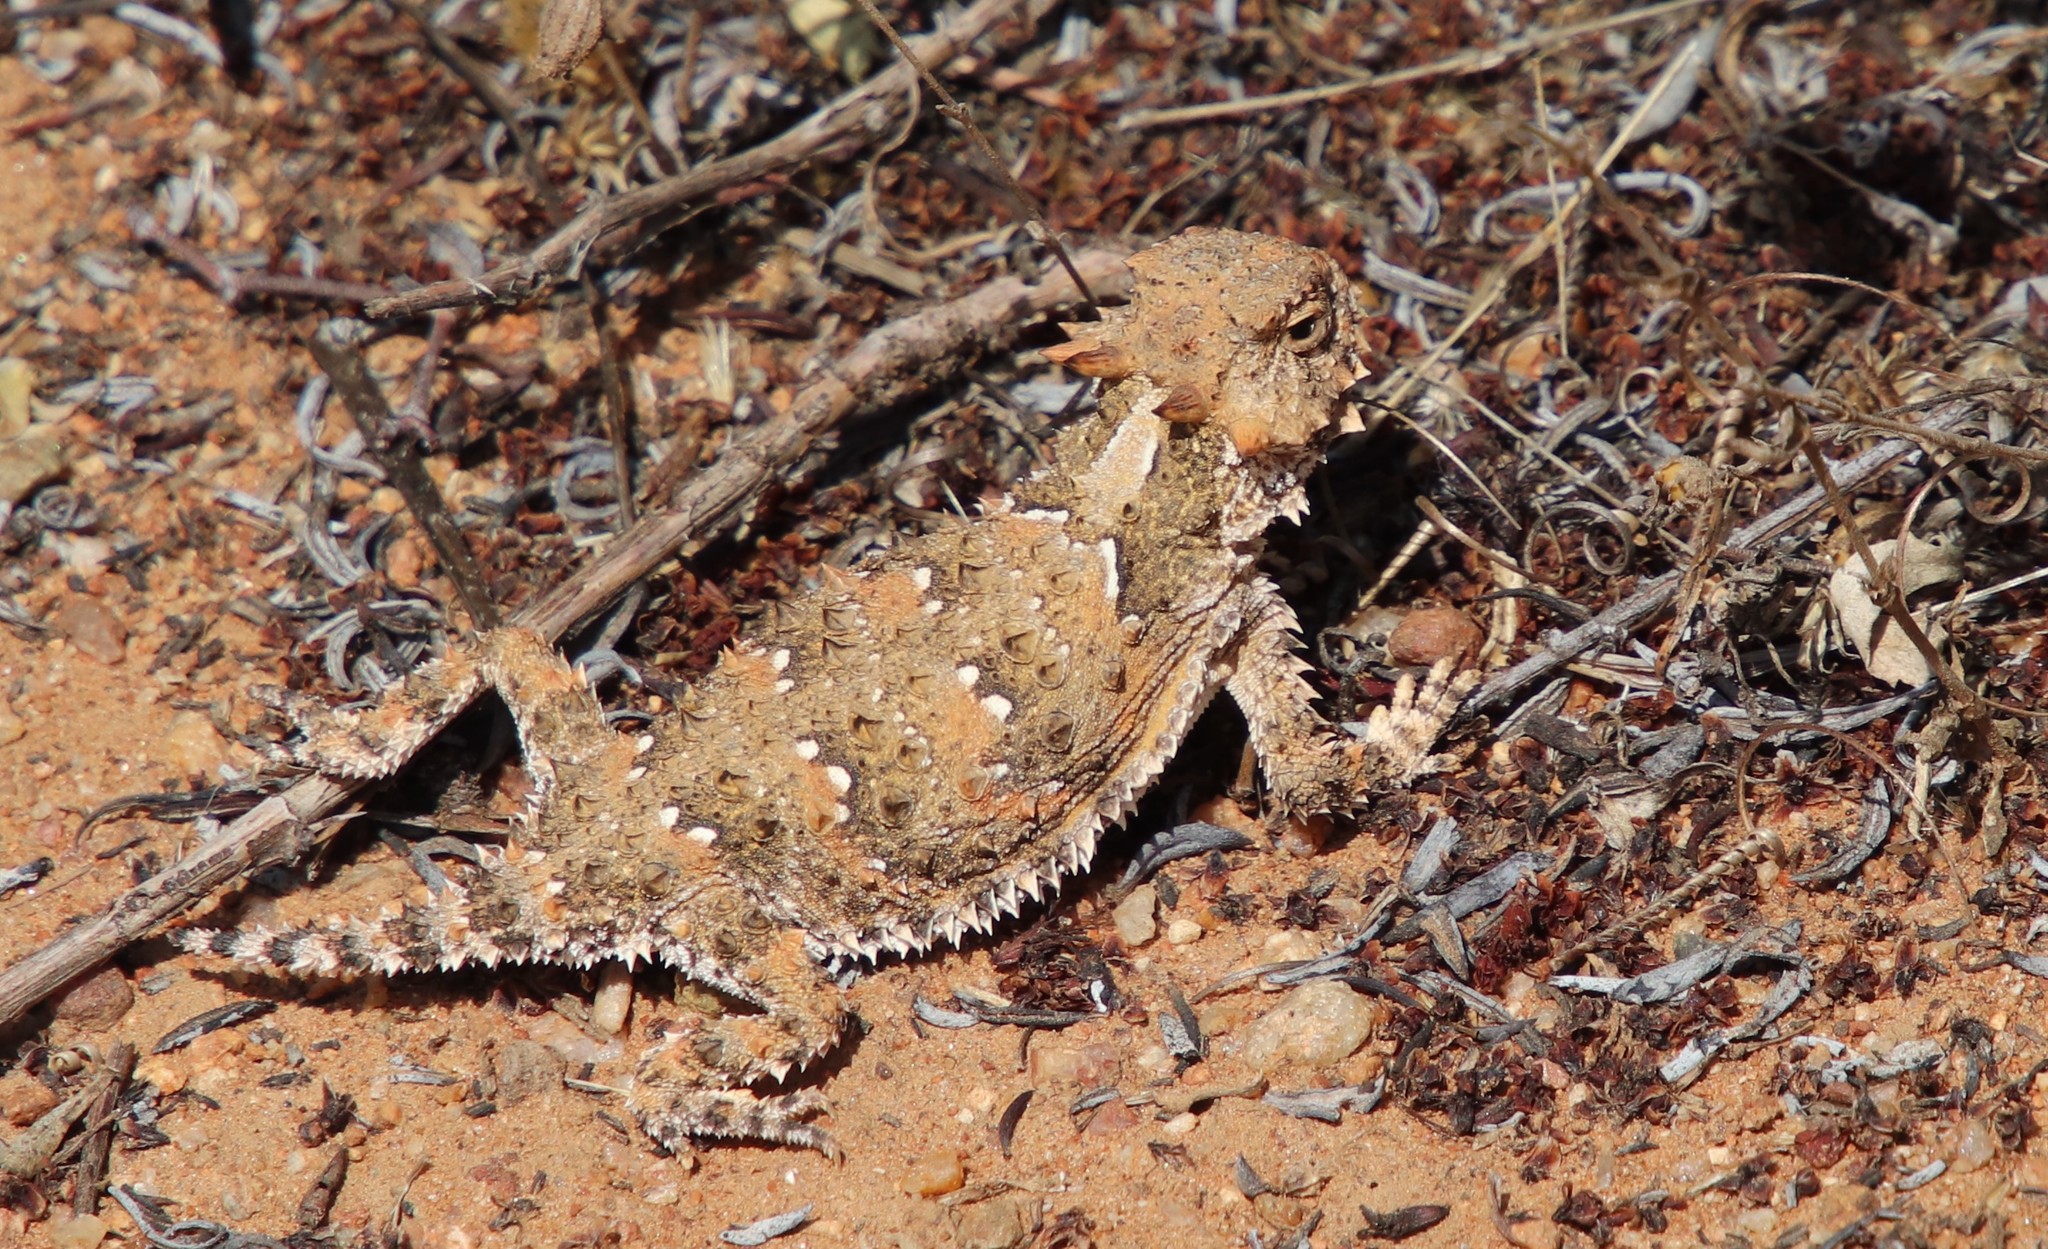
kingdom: Animalia
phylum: Chordata
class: Squamata
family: Phrynosomatidae
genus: Phrynosoma
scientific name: Phrynosoma blainvillii
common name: San diego horned lizard
